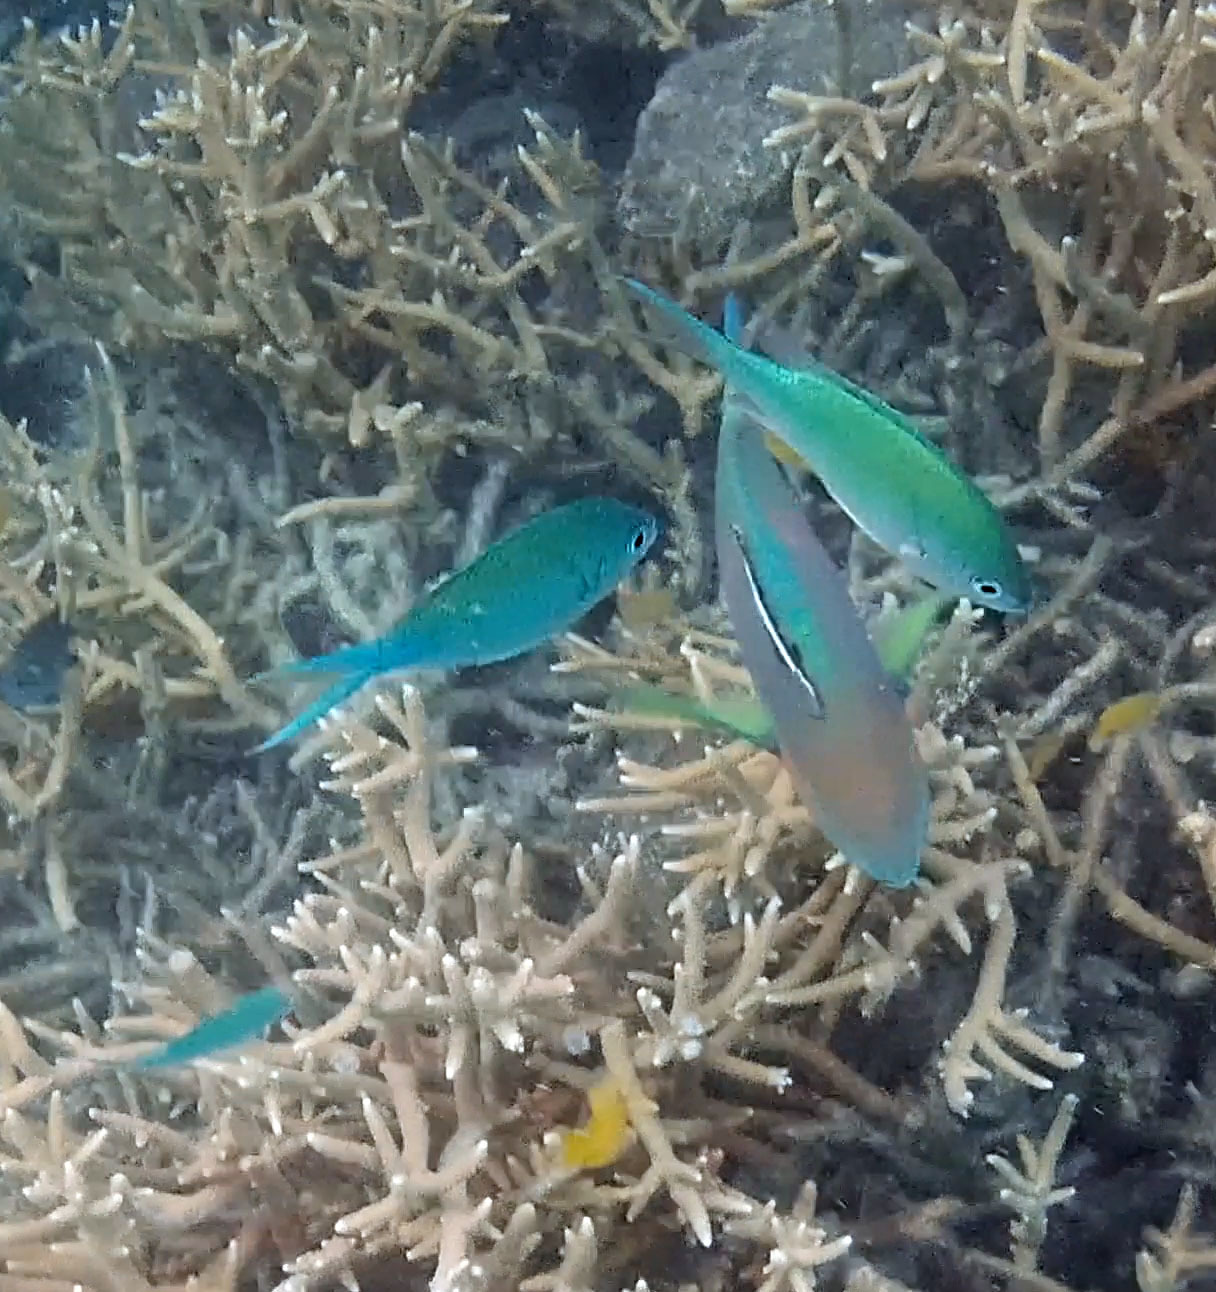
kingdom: Animalia
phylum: Chordata
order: Perciformes
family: Echeneidae
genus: Echeneis
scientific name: Echeneis naucrates
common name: Sharksucker
